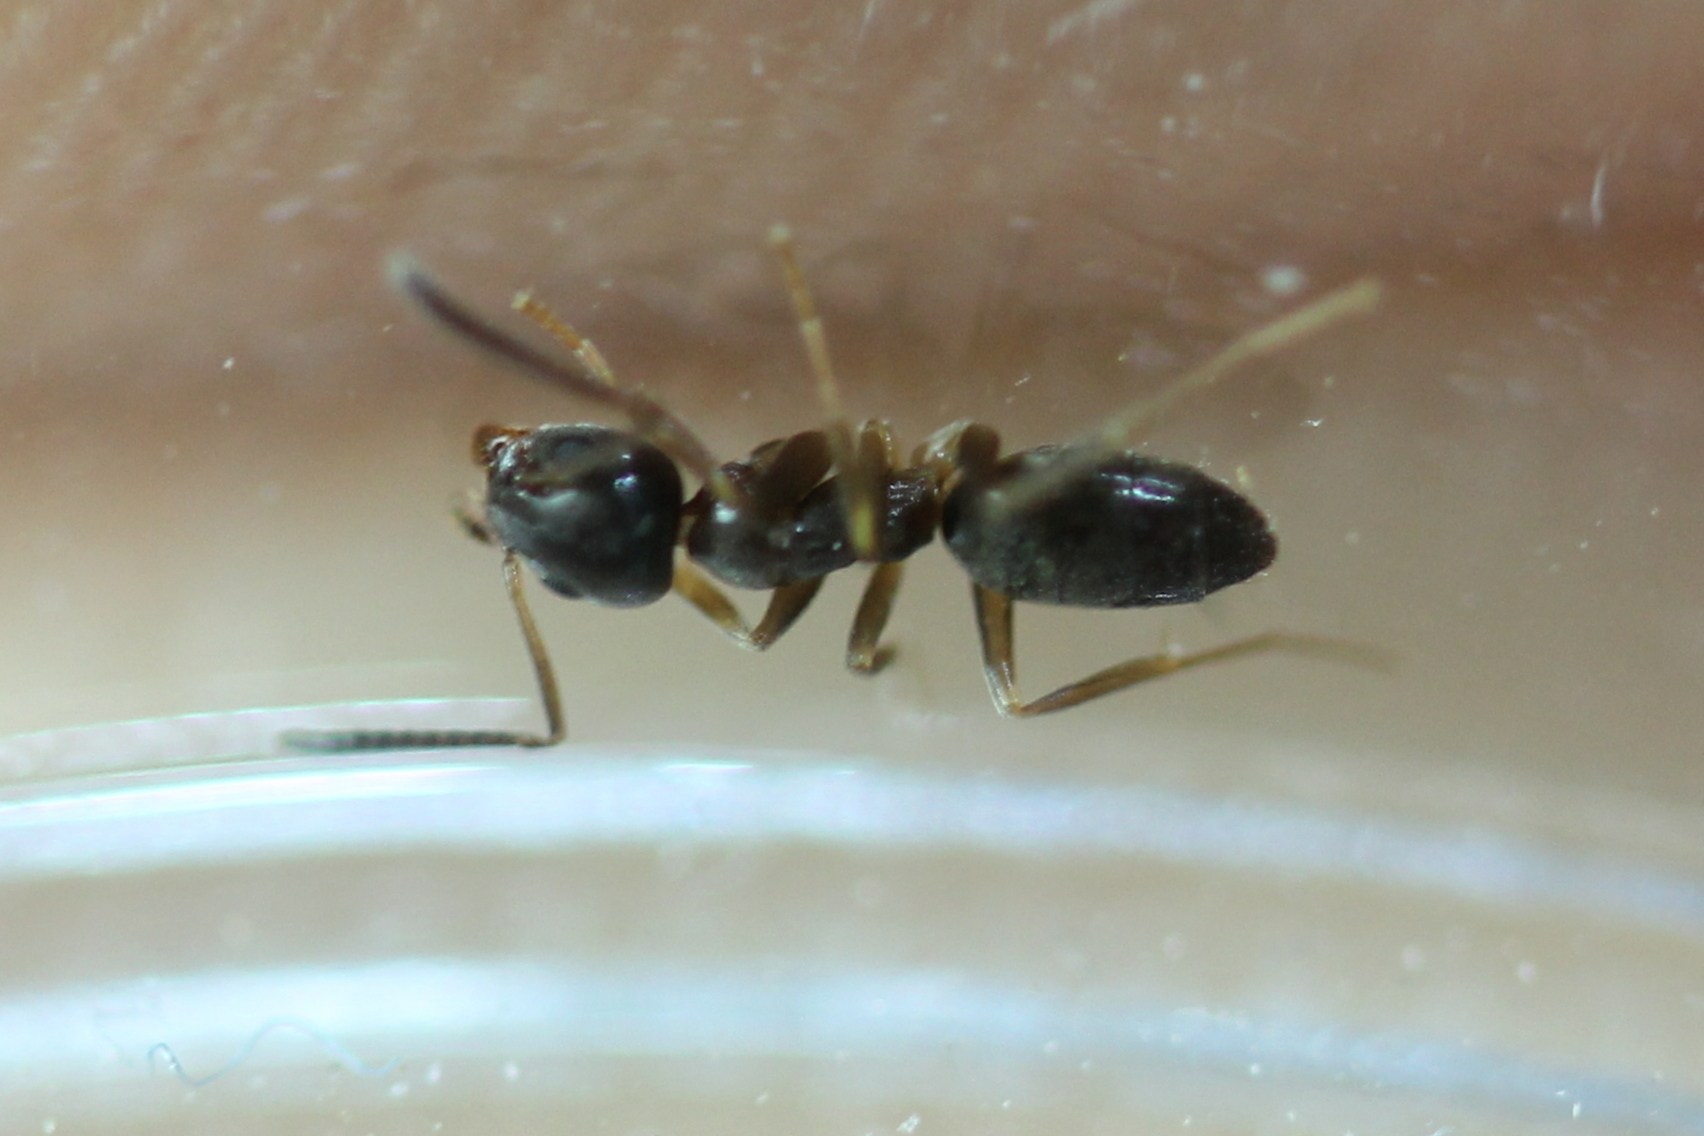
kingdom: Animalia
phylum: Arthropoda
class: Insecta
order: Hymenoptera
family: Formicidae
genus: Tapinoma
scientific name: Tapinoma sessile
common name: Odorous house ant
